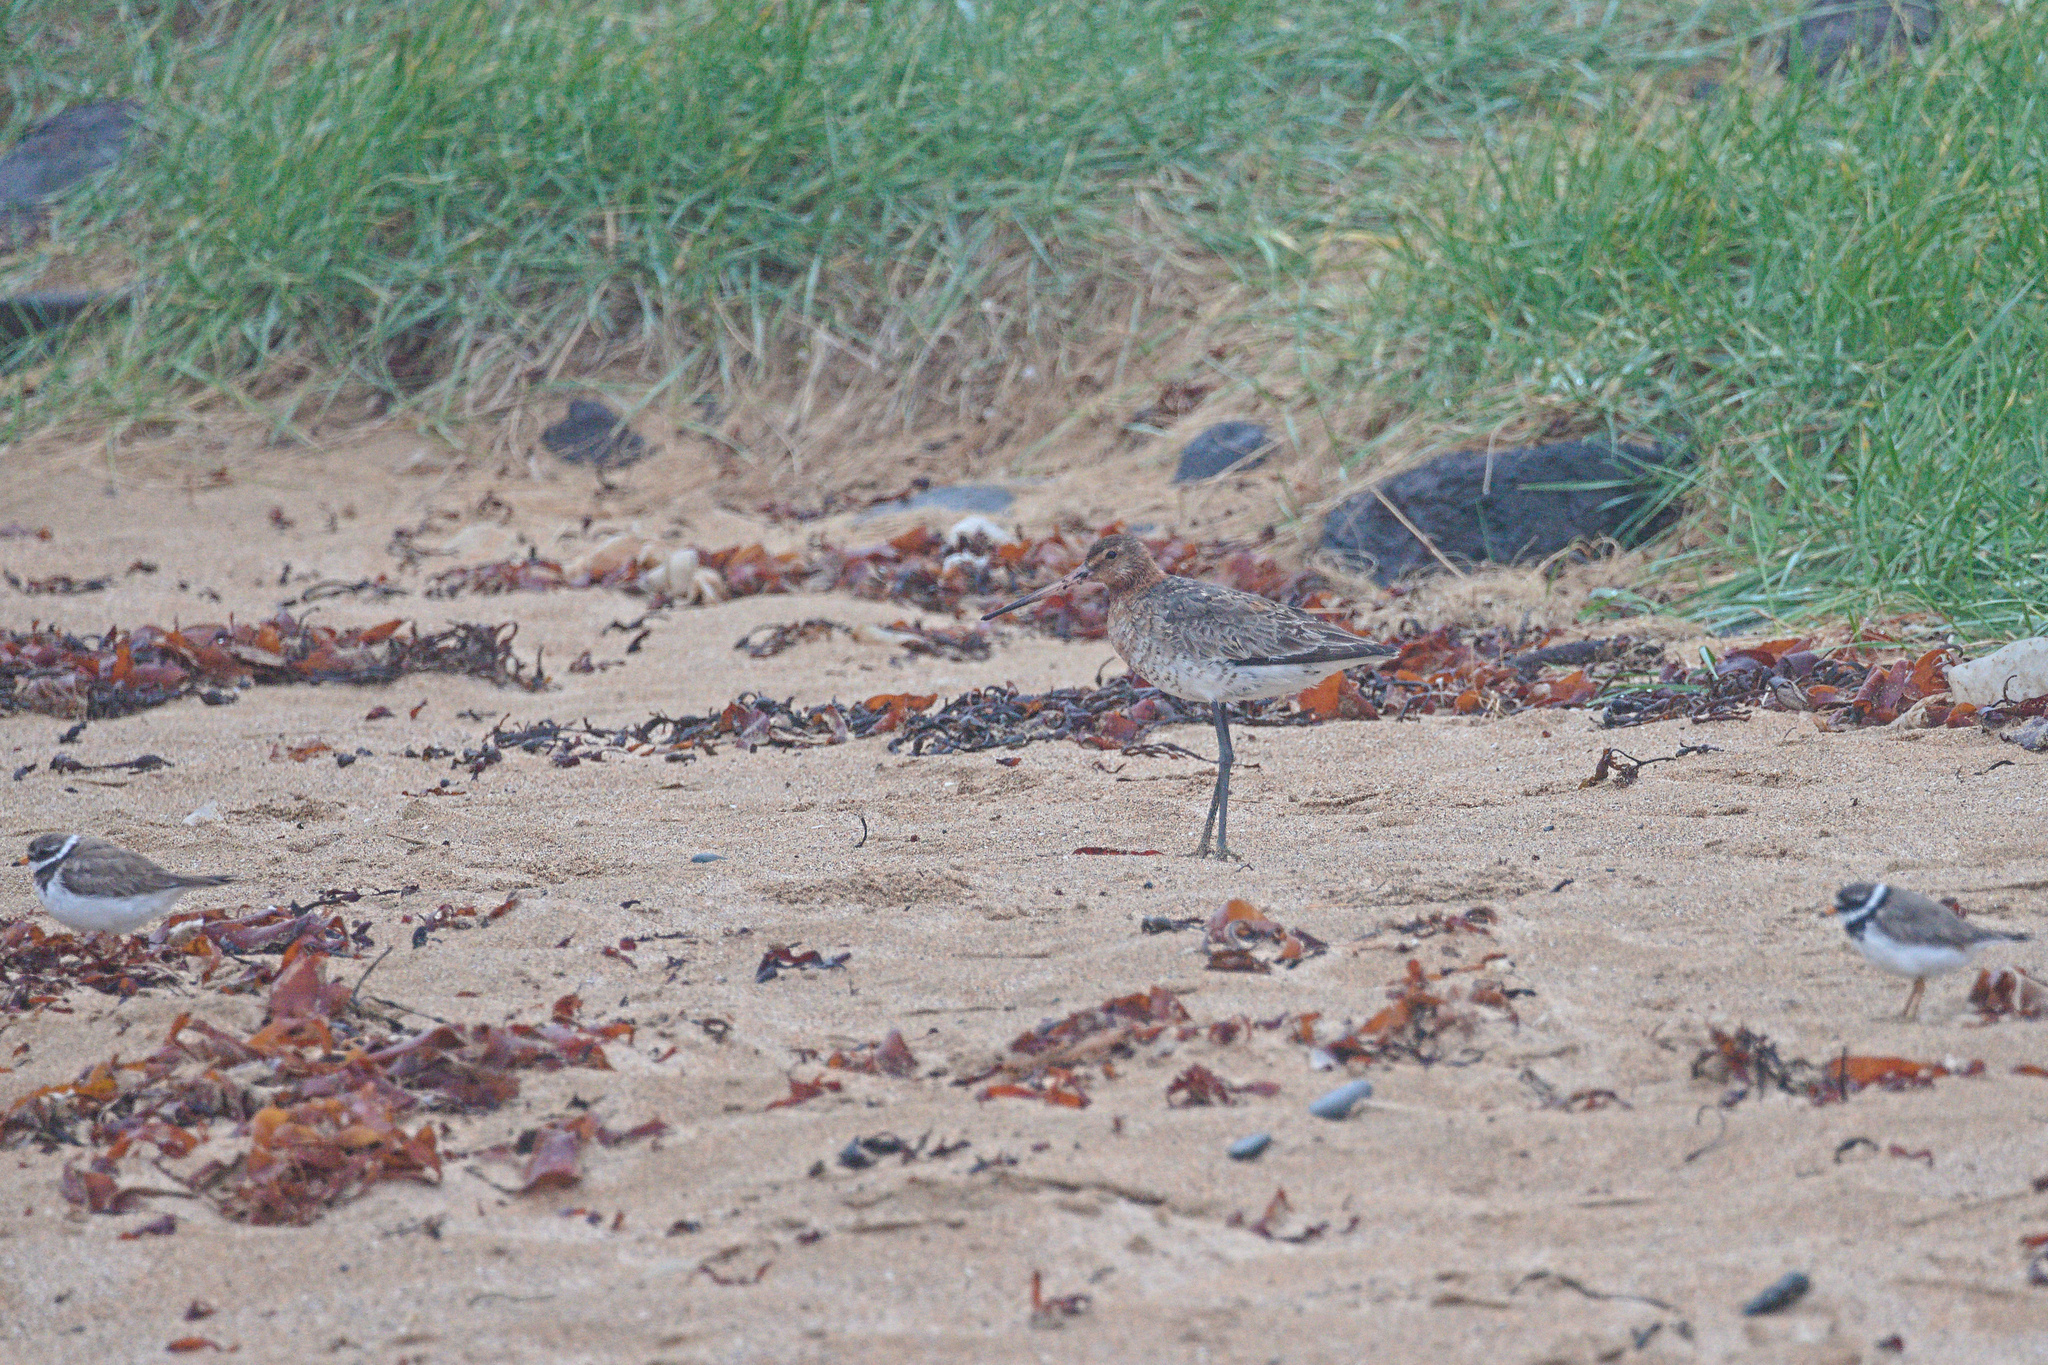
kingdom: Animalia
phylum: Chordata
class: Aves
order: Charadriiformes
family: Scolopacidae
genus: Limosa
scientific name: Limosa limosa
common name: Black-tailed godwit
